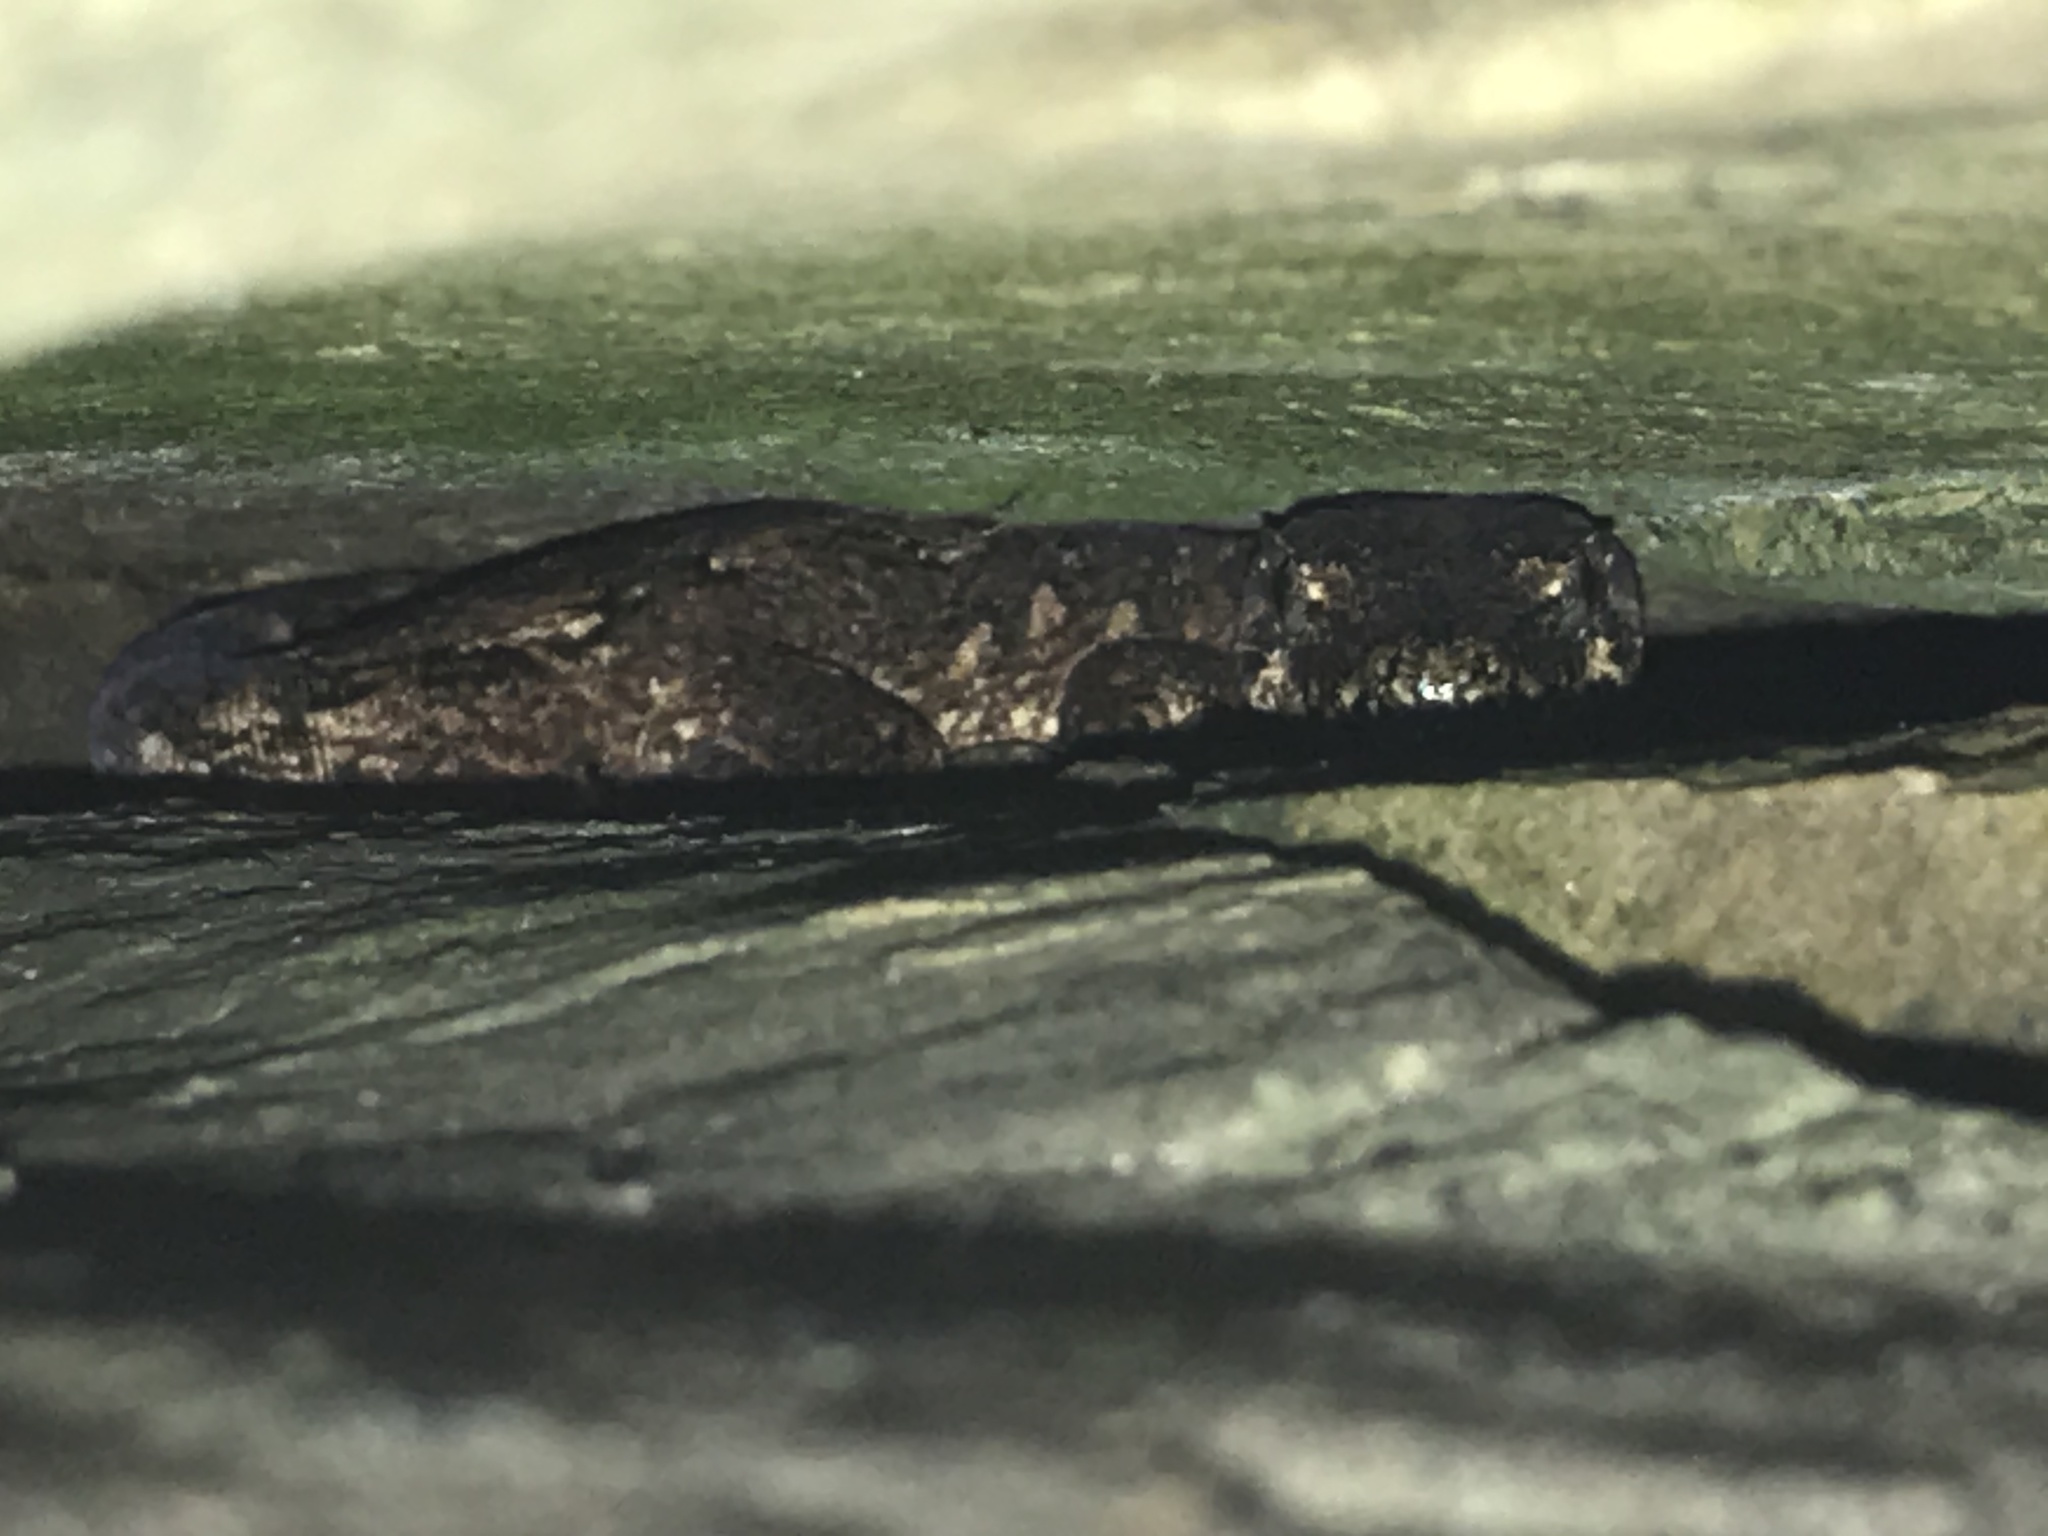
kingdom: Animalia
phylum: Chordata
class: Squamata
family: Diplodactylidae
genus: Mokopirirakau
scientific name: Mokopirirakau
